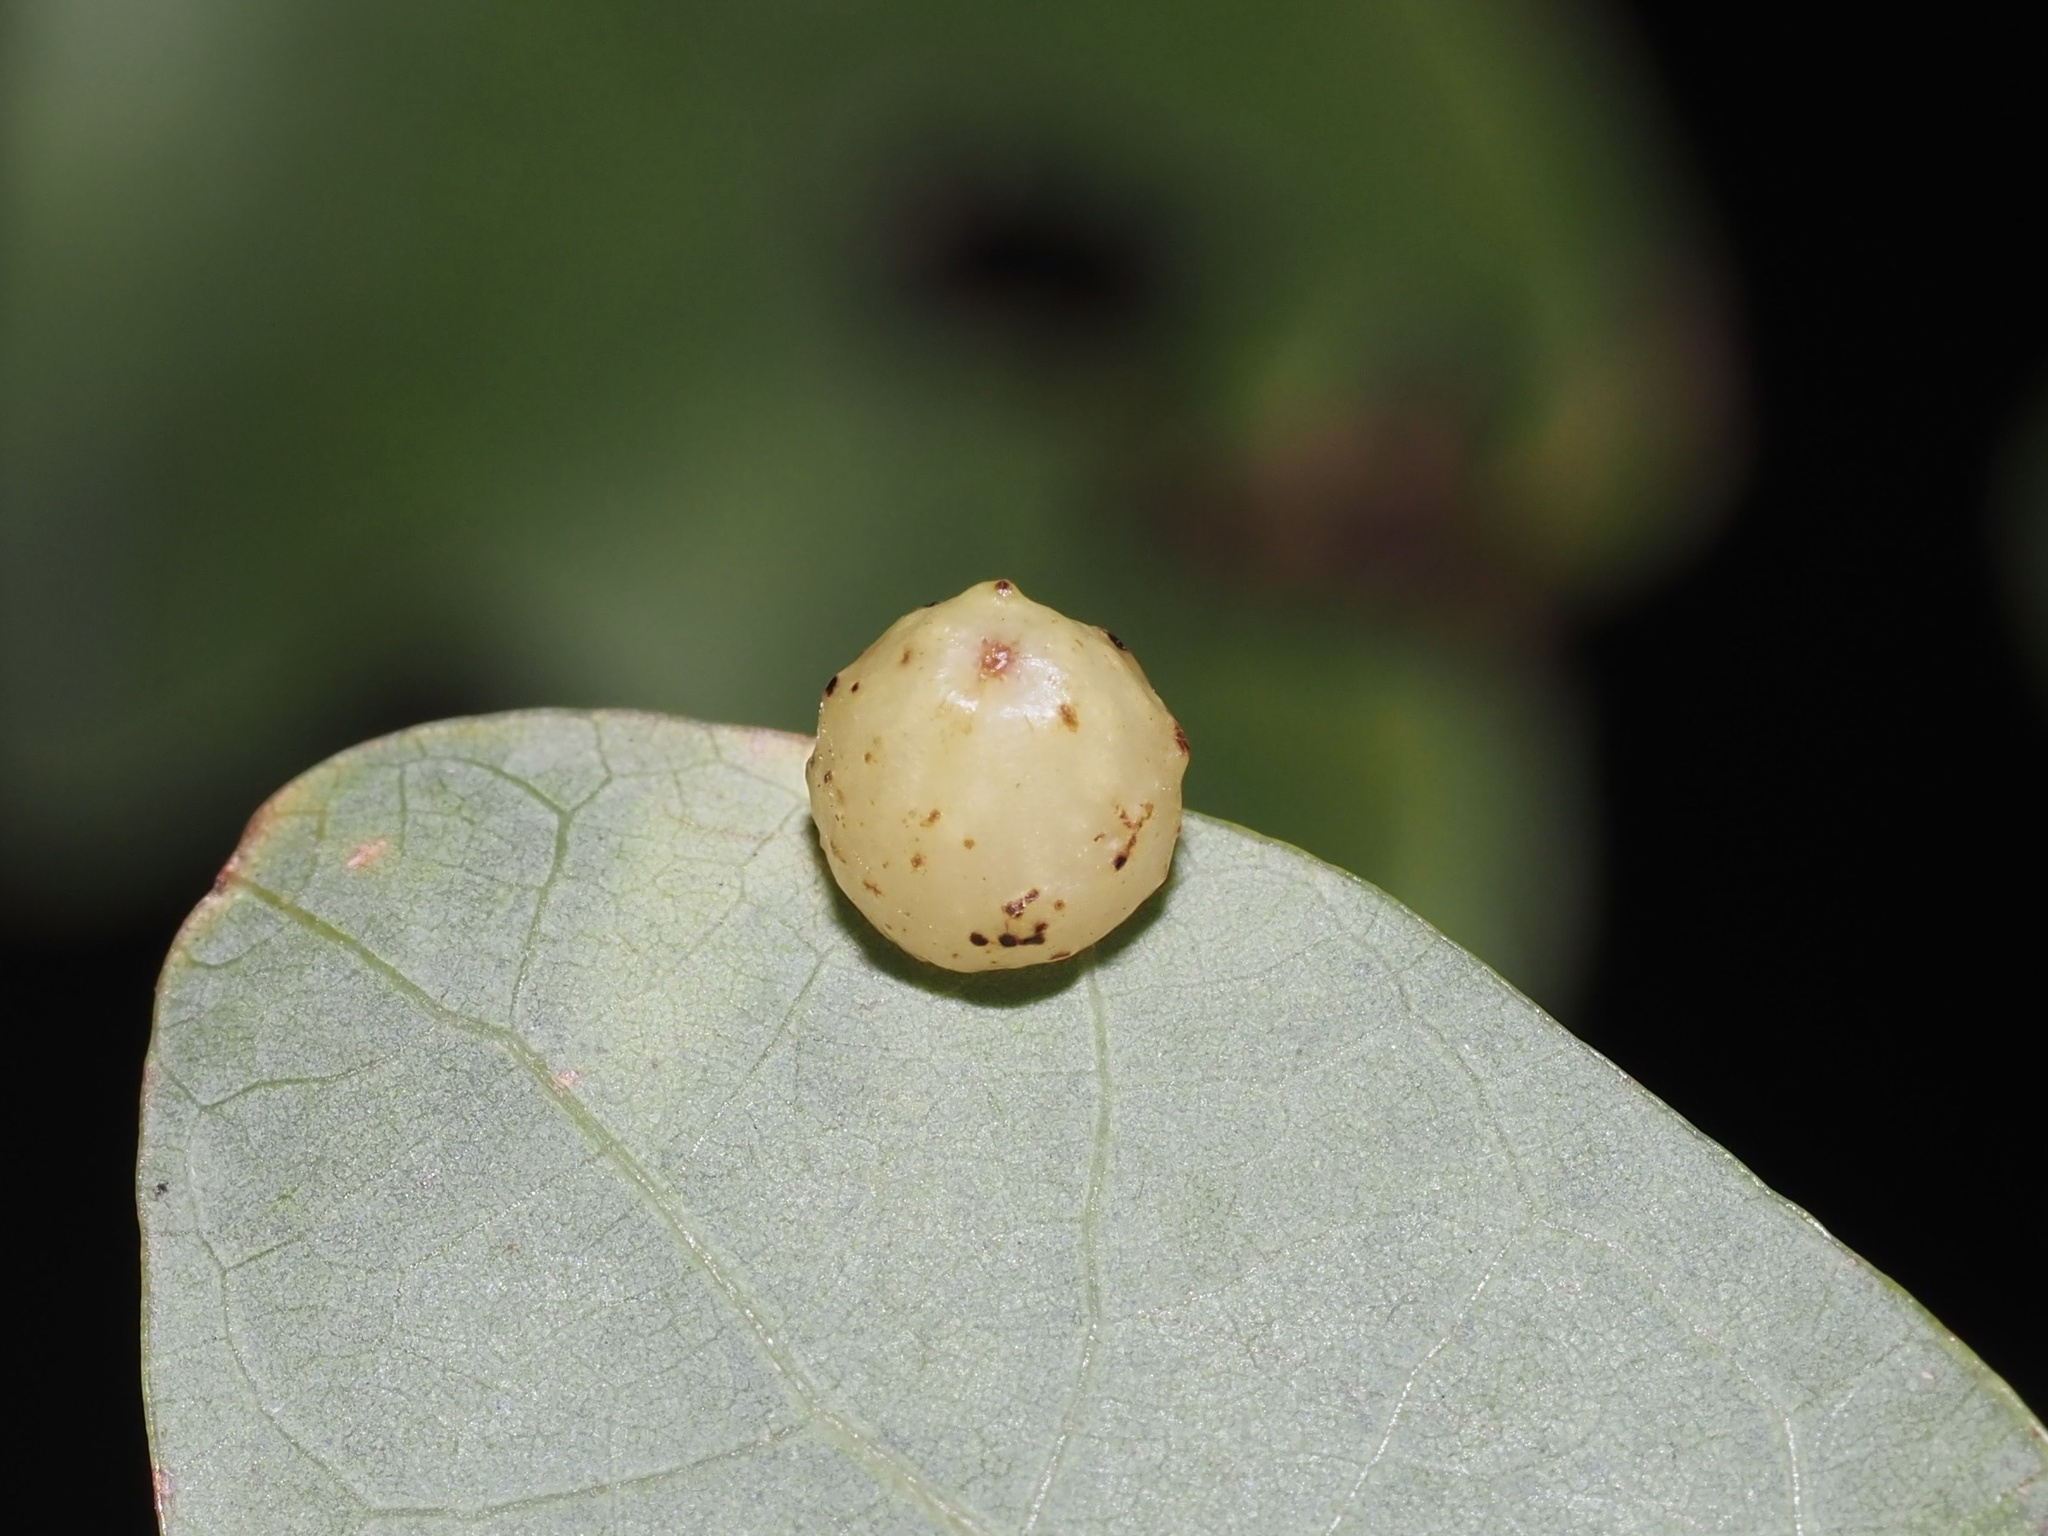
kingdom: Animalia
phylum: Arthropoda
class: Insecta
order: Hymenoptera
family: Cynipidae
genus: Andricus
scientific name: Andricus
